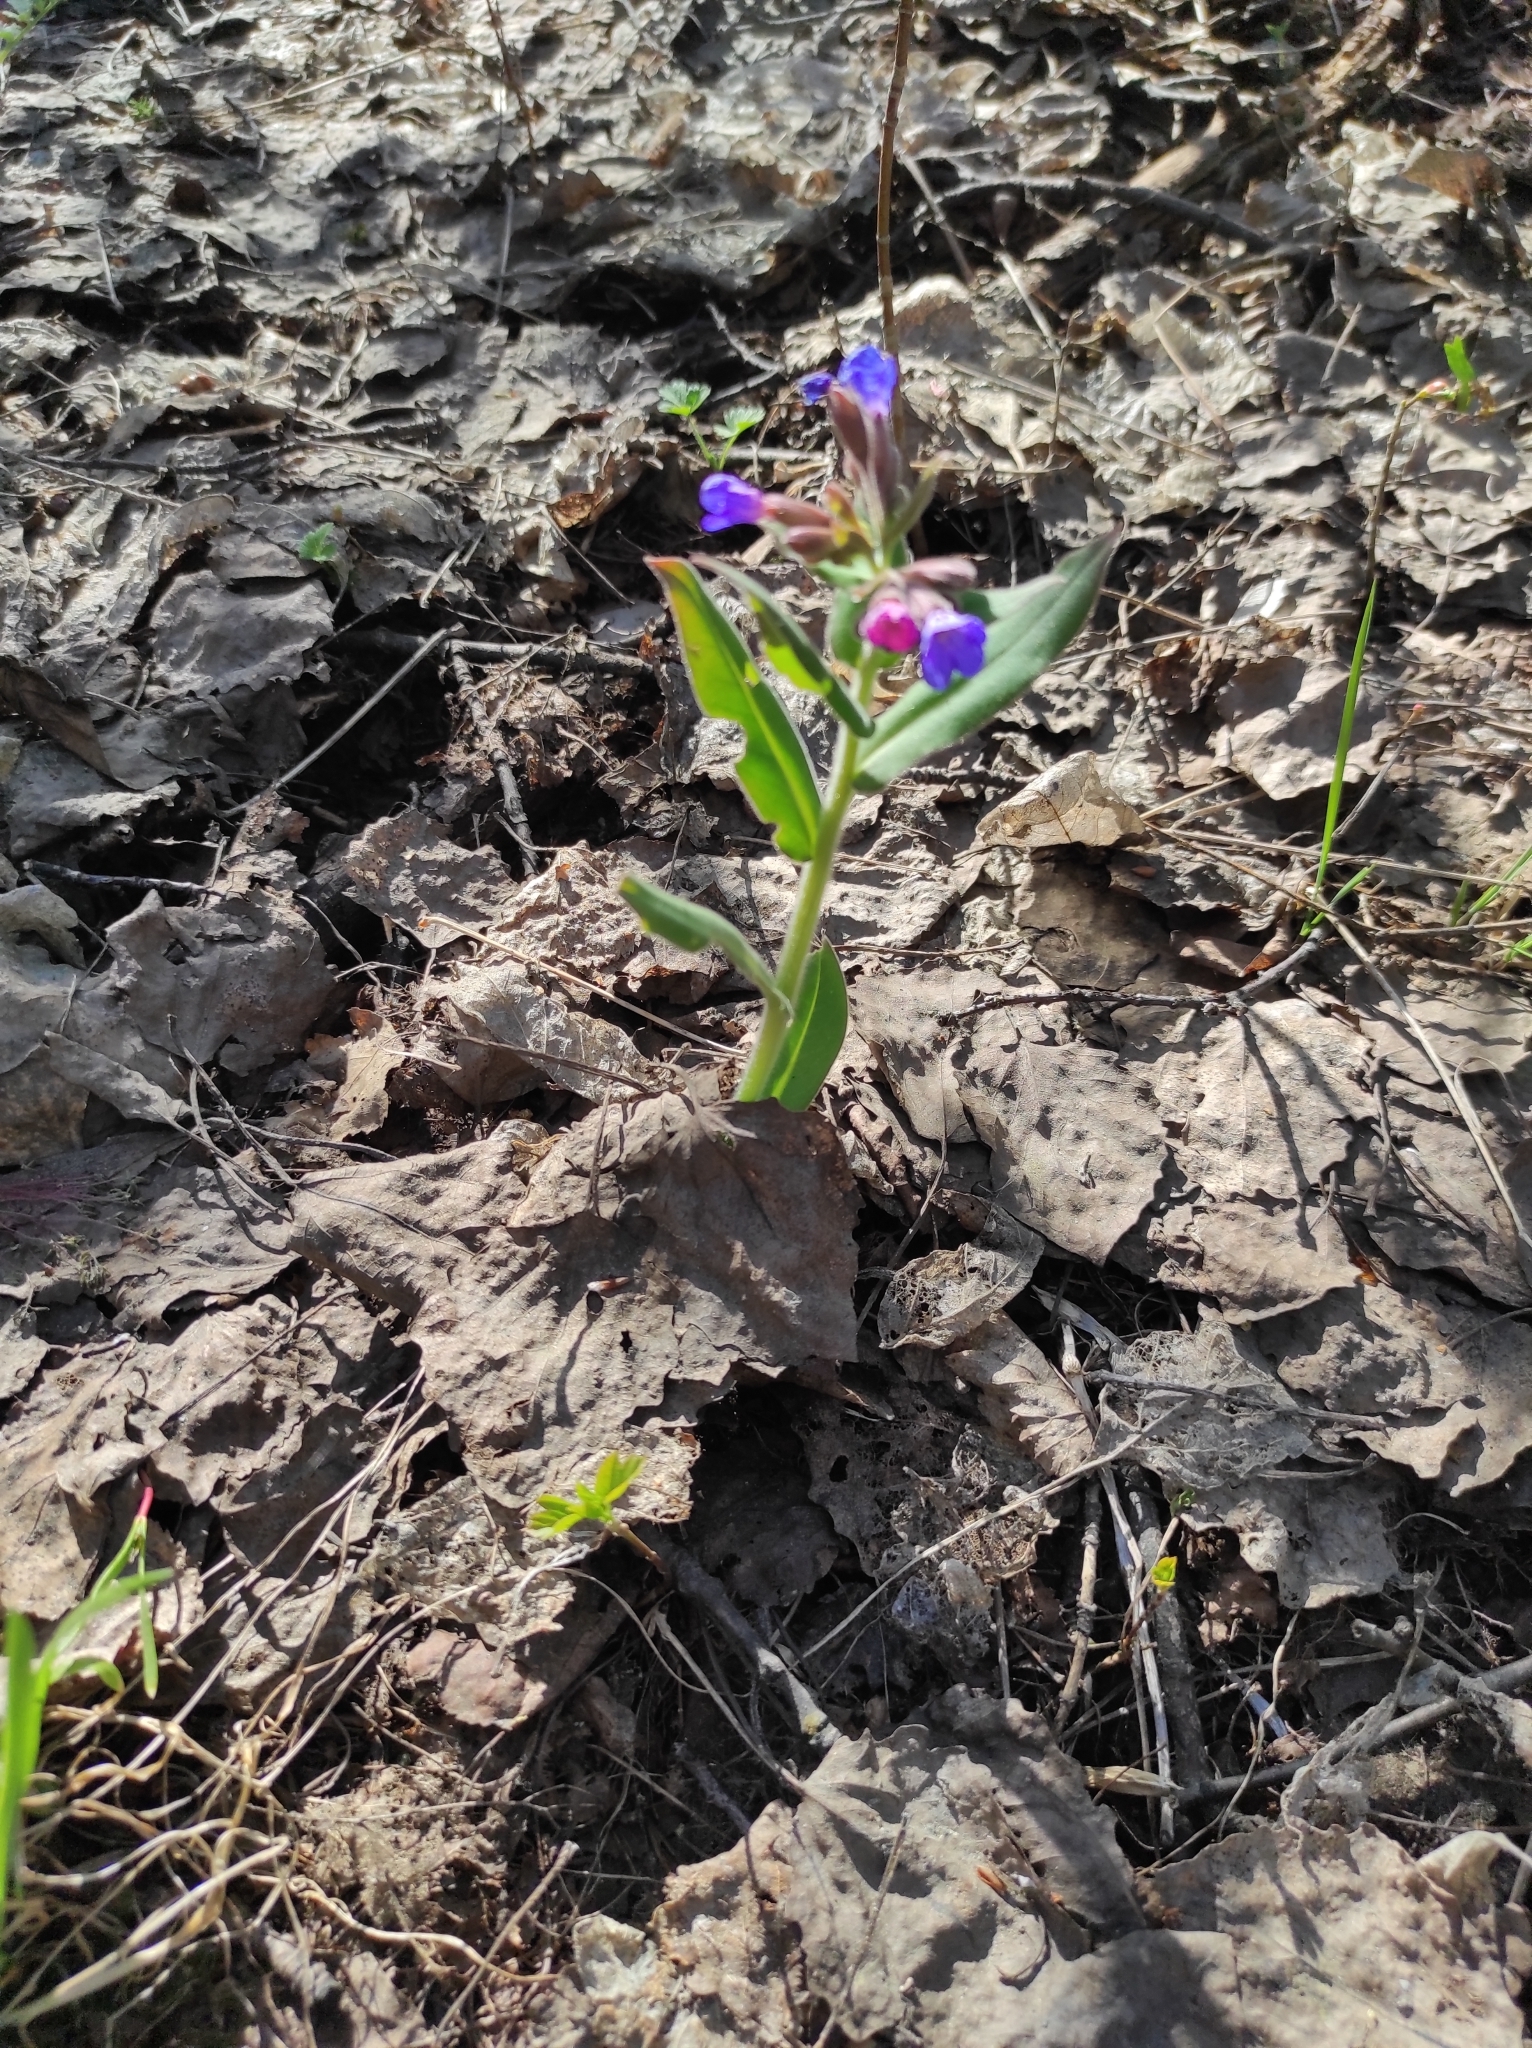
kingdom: Plantae
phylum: Tracheophyta
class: Magnoliopsida
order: Boraginales
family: Boraginaceae
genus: Pulmonaria
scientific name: Pulmonaria mollis
